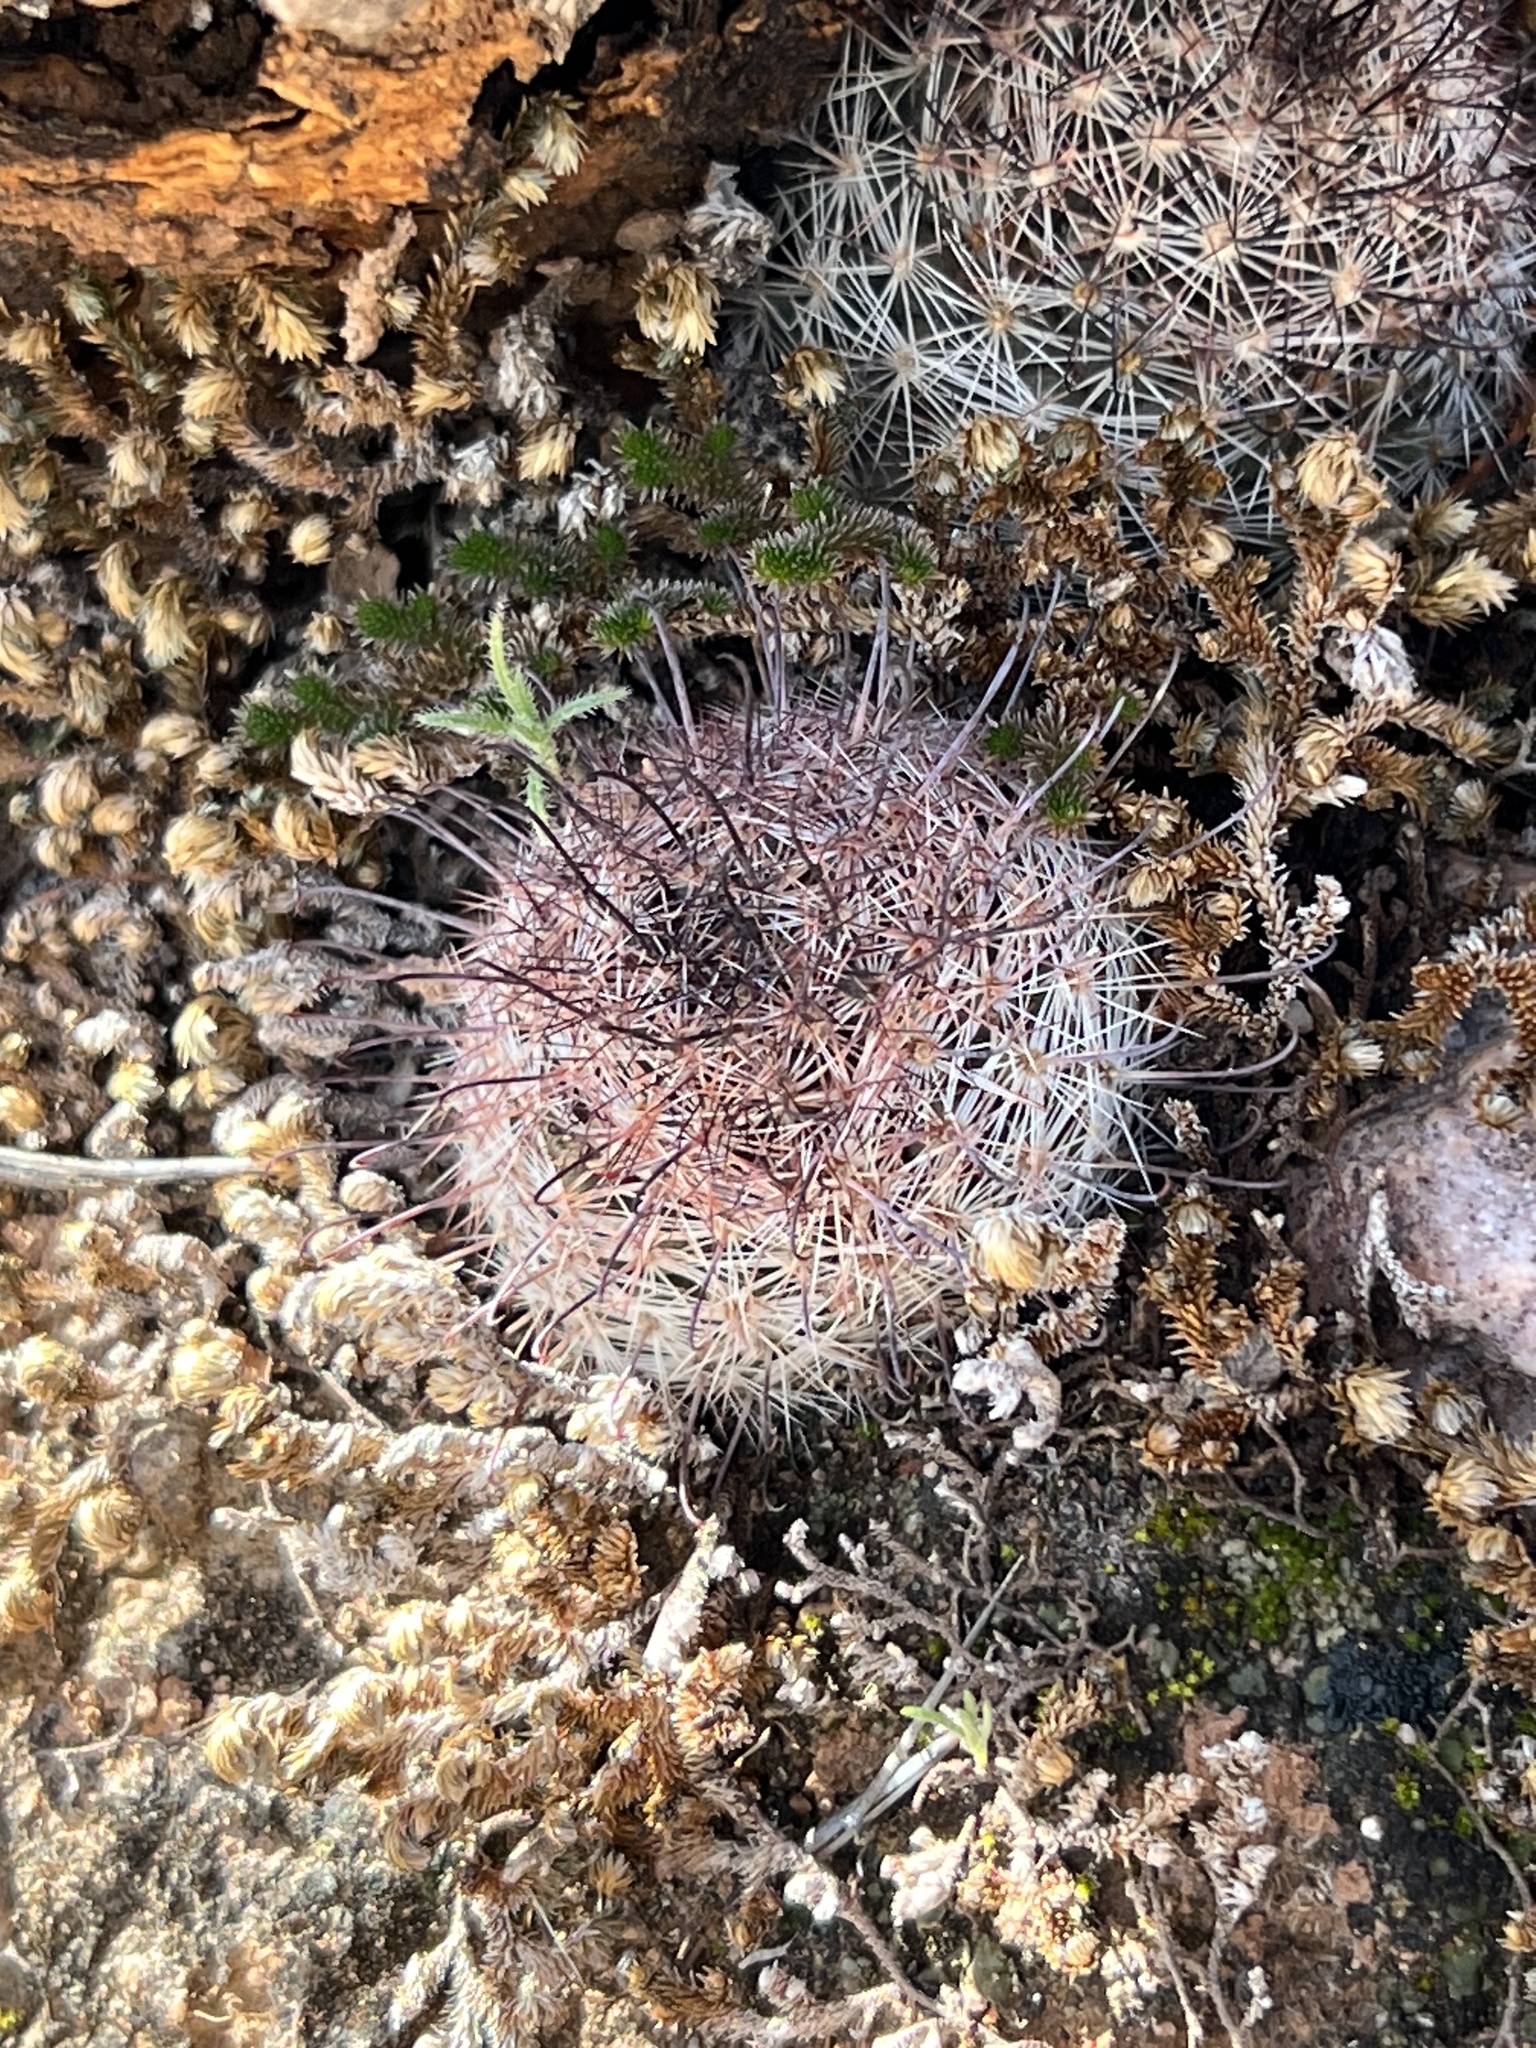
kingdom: Plantae
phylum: Tracheophyta
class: Magnoliopsida
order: Caryophyllales
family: Cactaceae
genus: Cochemiea
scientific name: Cochemiea grahamii
